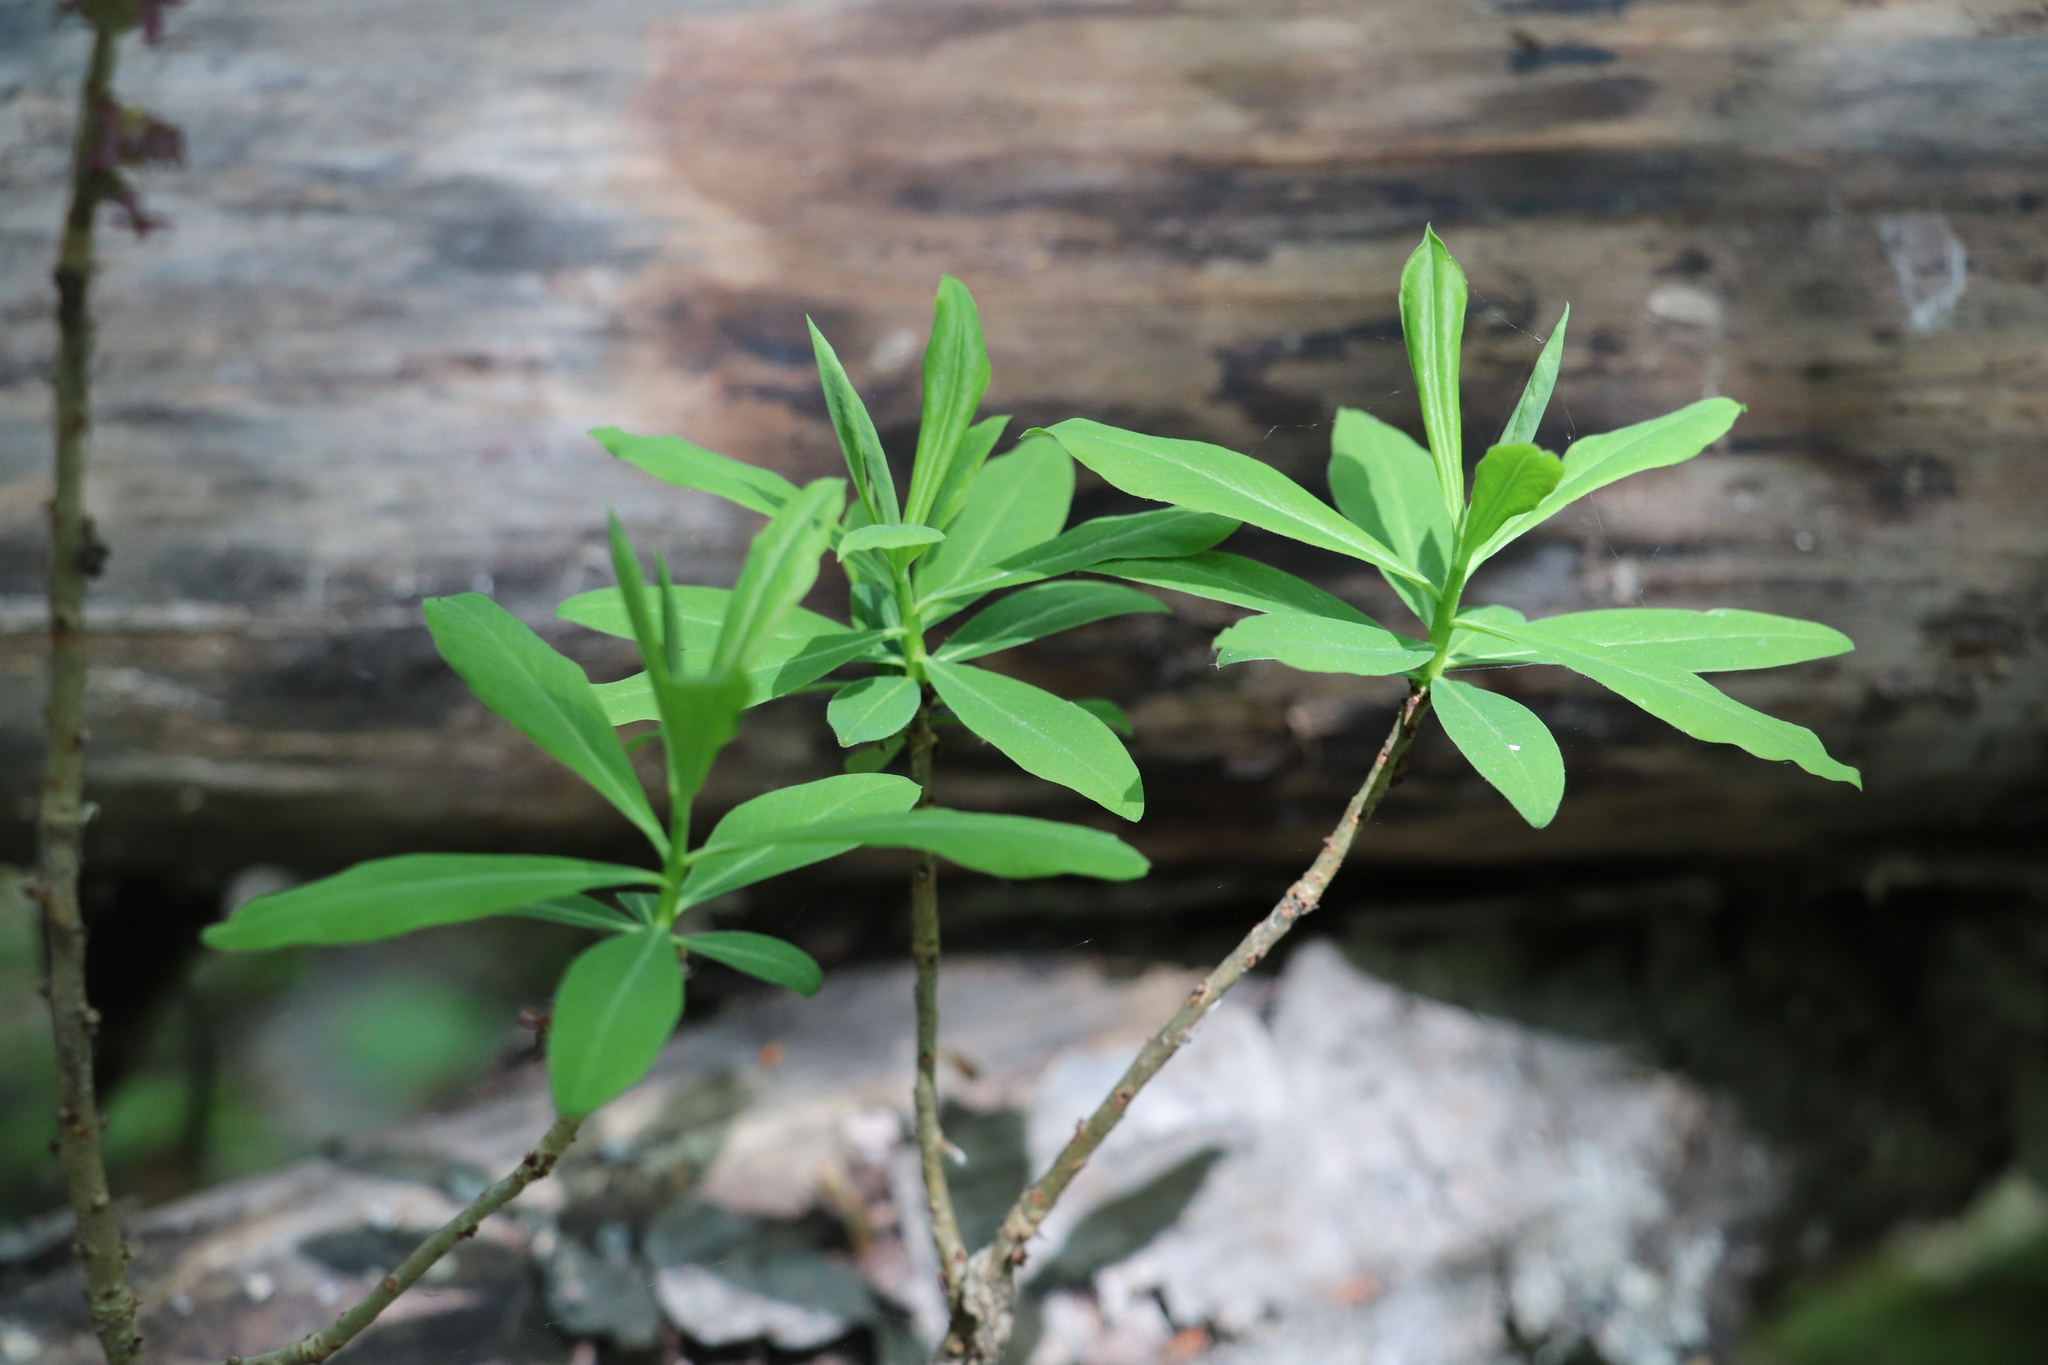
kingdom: Plantae
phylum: Tracheophyta
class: Magnoliopsida
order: Malvales
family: Thymelaeaceae
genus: Daphne
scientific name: Daphne mezereum
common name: Mezereon
